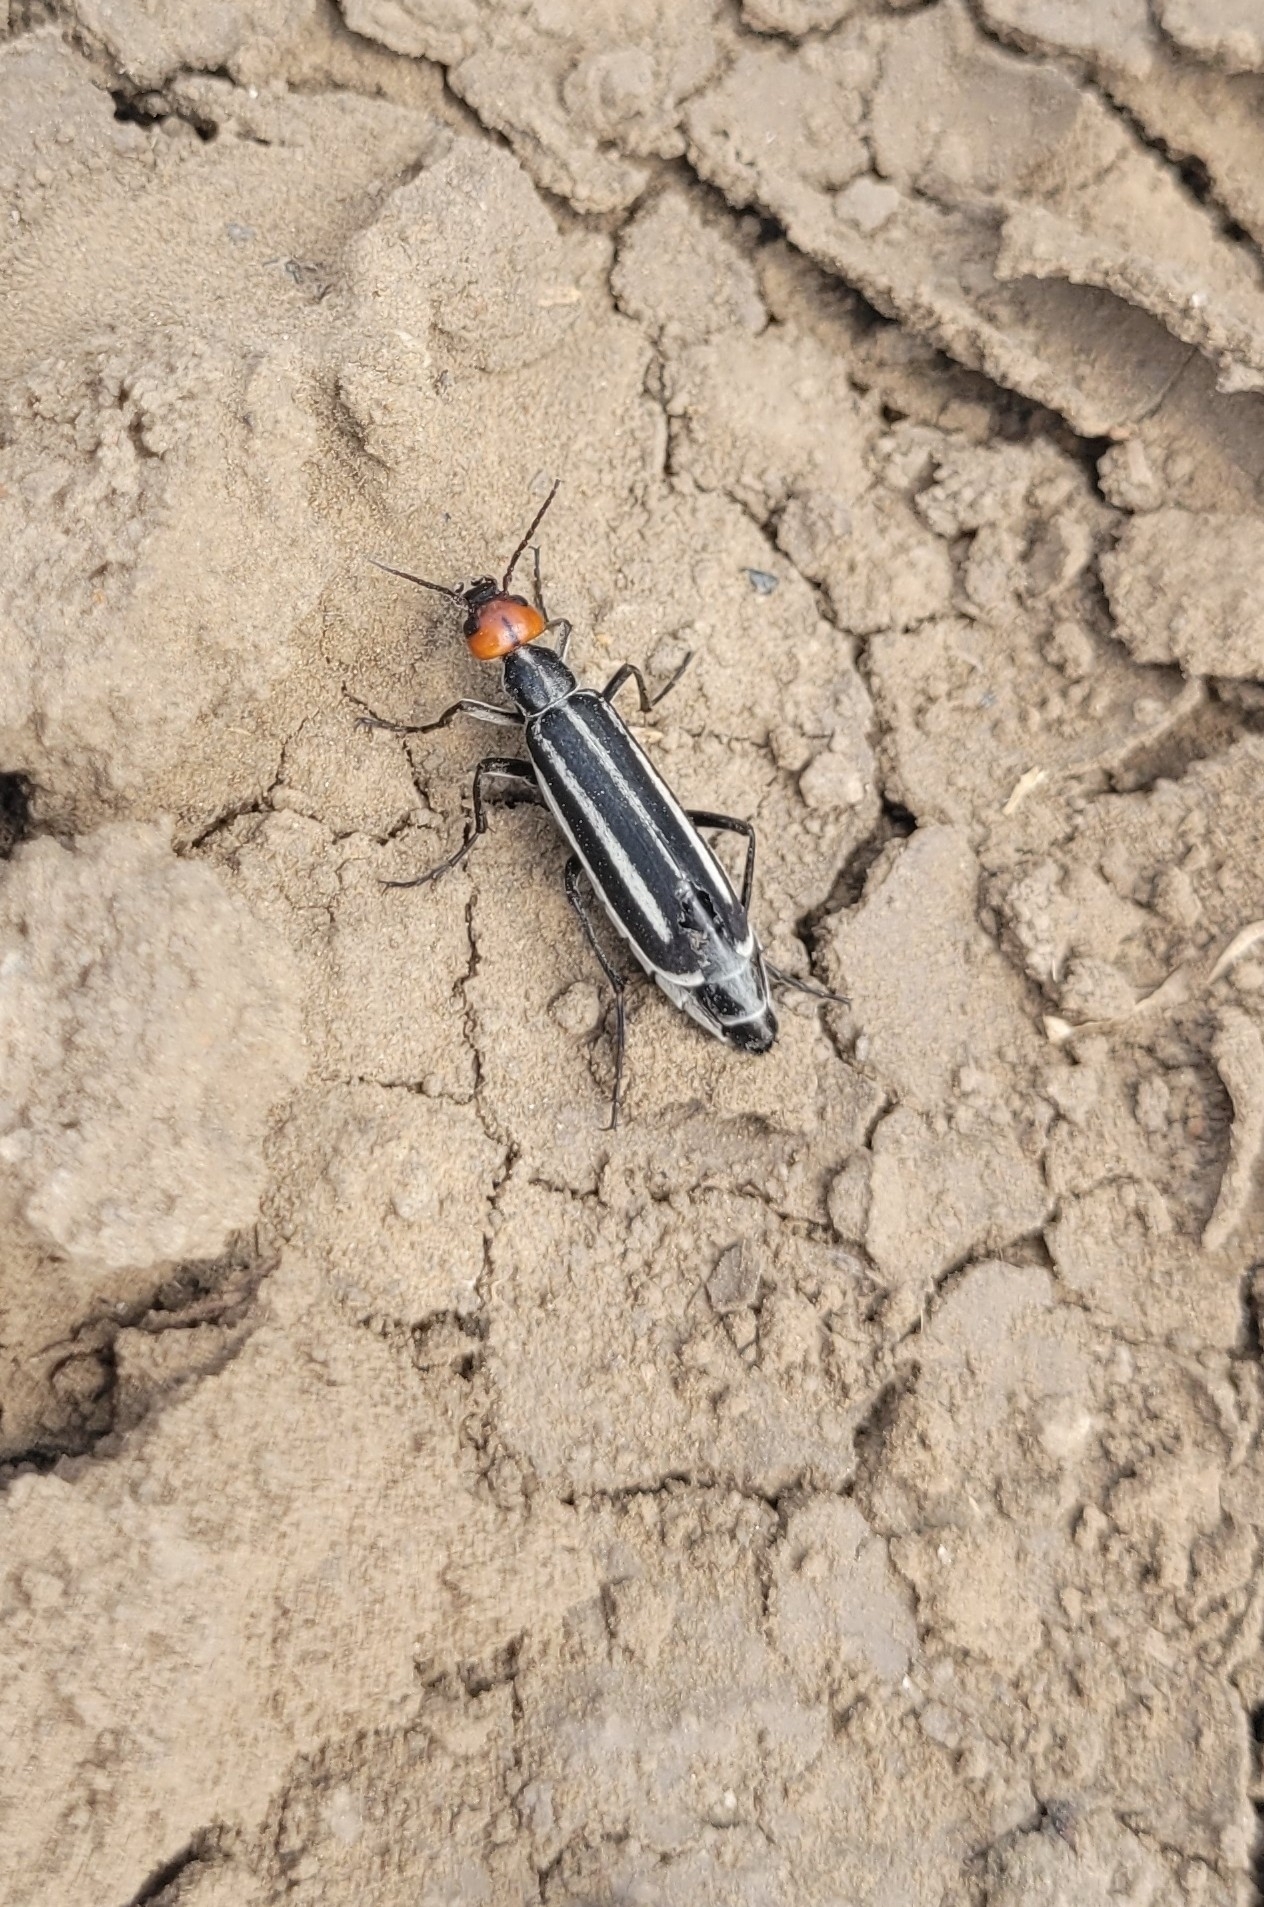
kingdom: Animalia
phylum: Arthropoda
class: Insecta
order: Coleoptera
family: Meloidae
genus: Epicauta
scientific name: Epicauta erythrocephala
